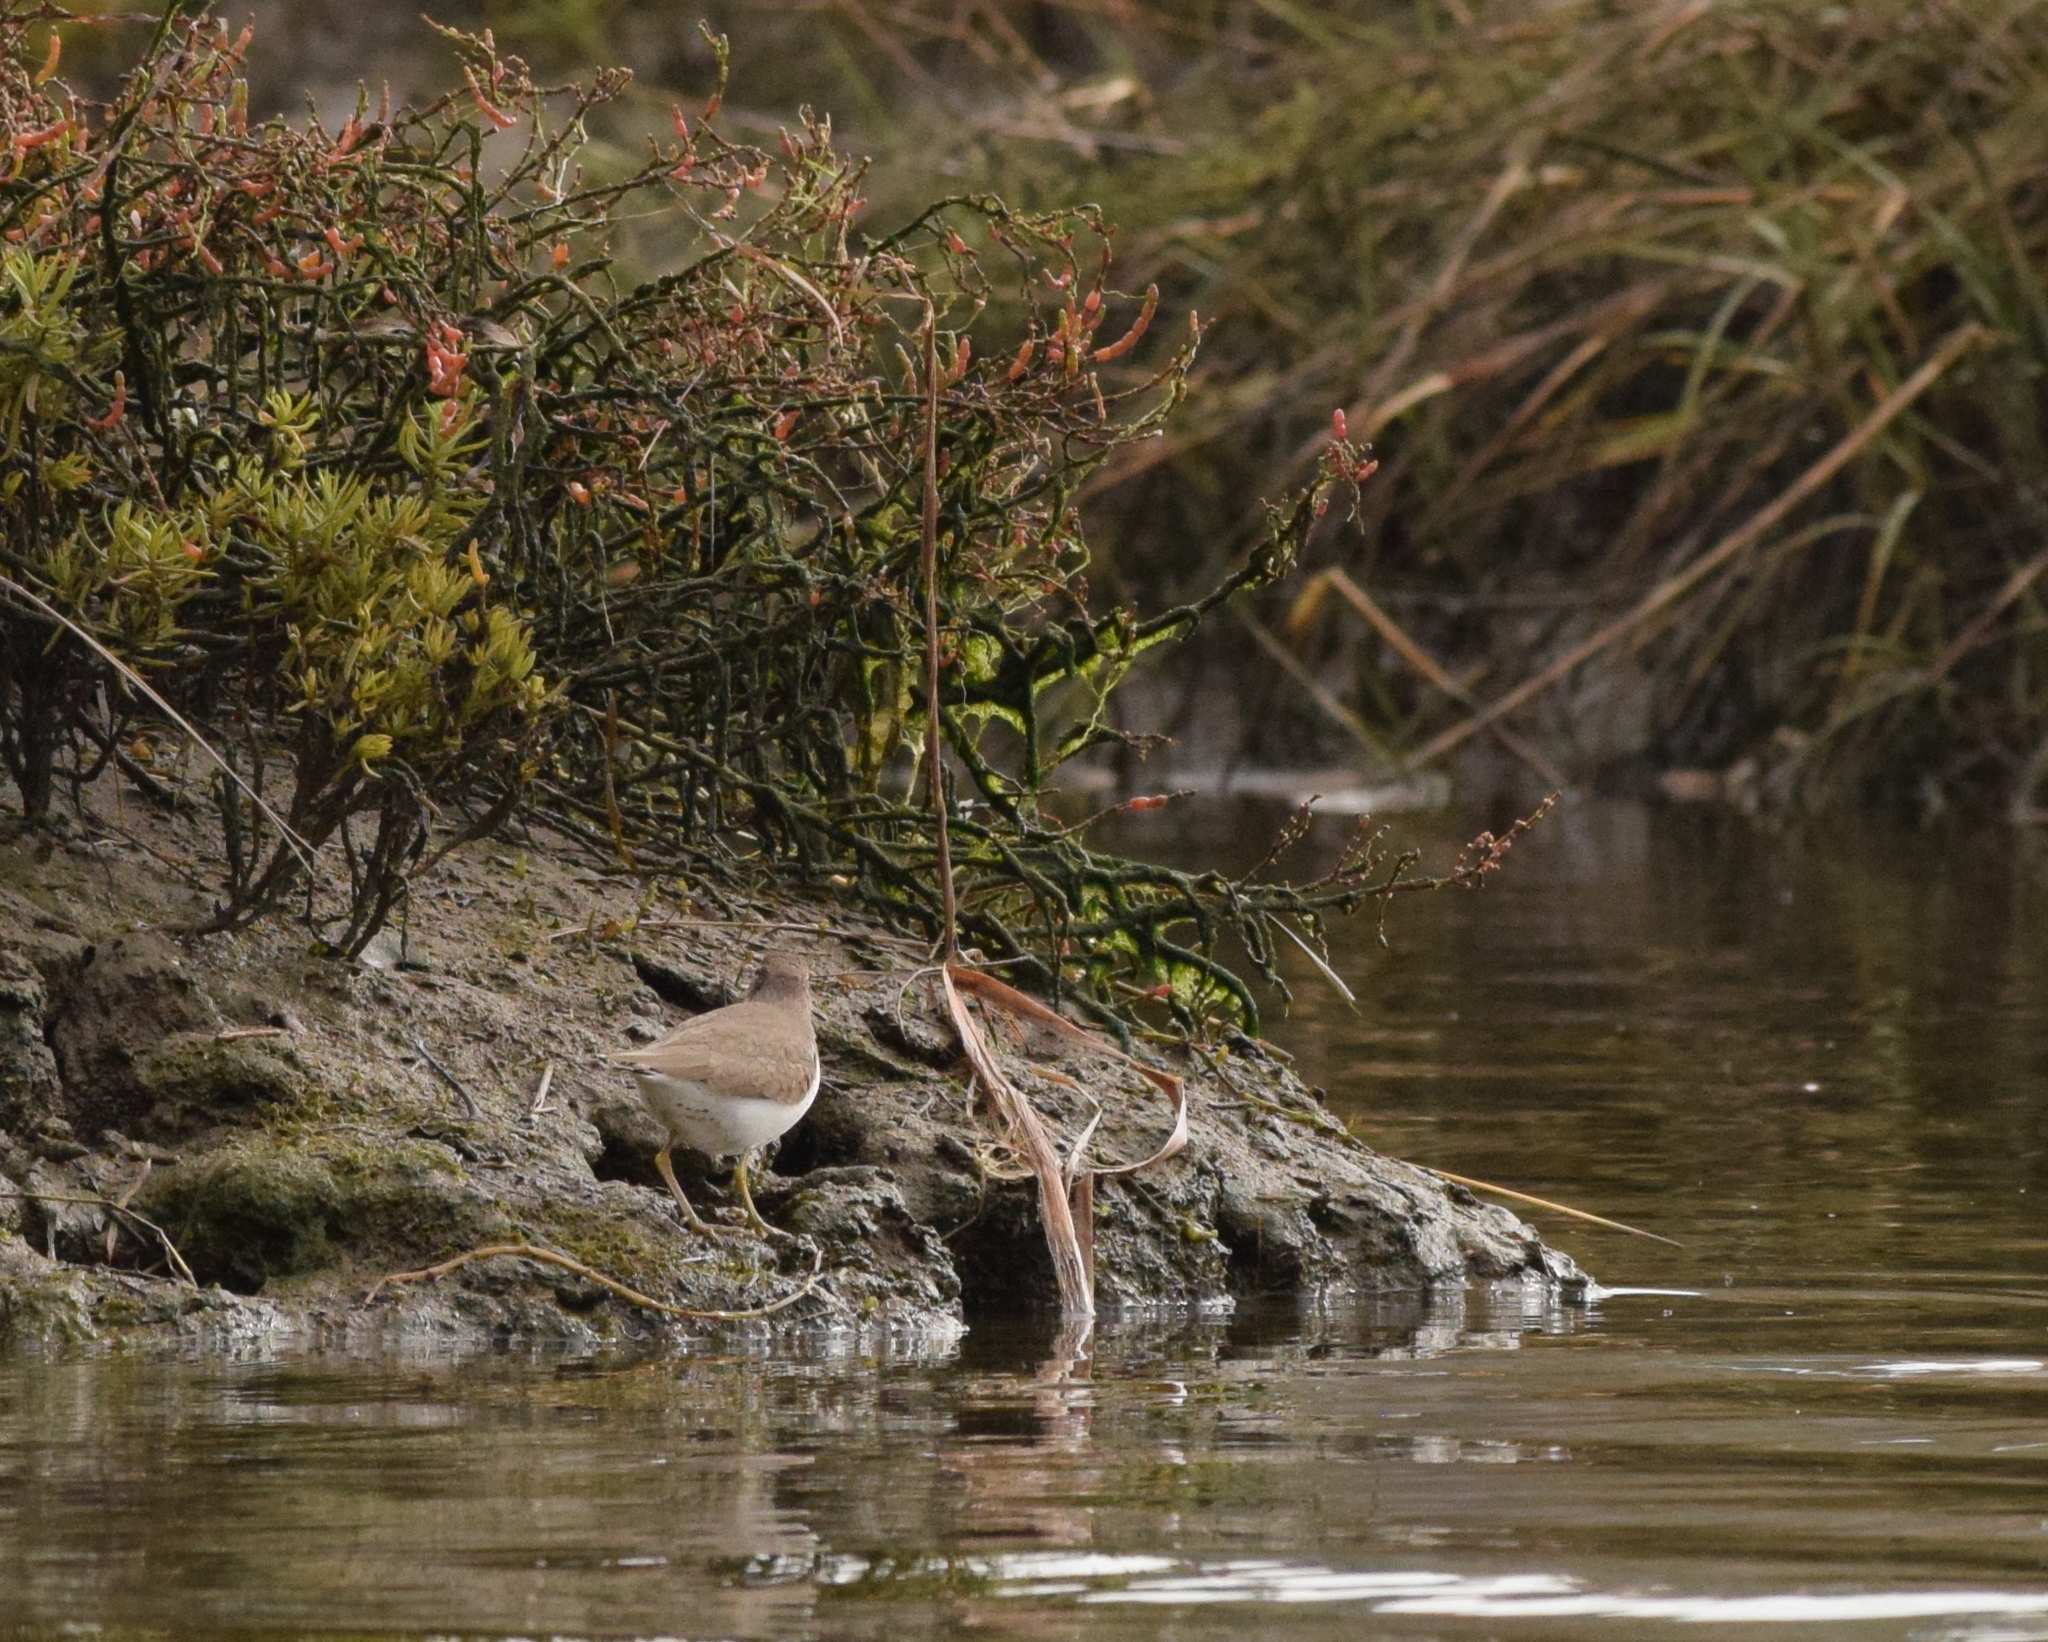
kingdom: Animalia
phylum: Chordata
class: Aves
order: Charadriiformes
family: Scolopacidae
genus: Actitis
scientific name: Actitis macularius
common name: Spotted sandpiper
